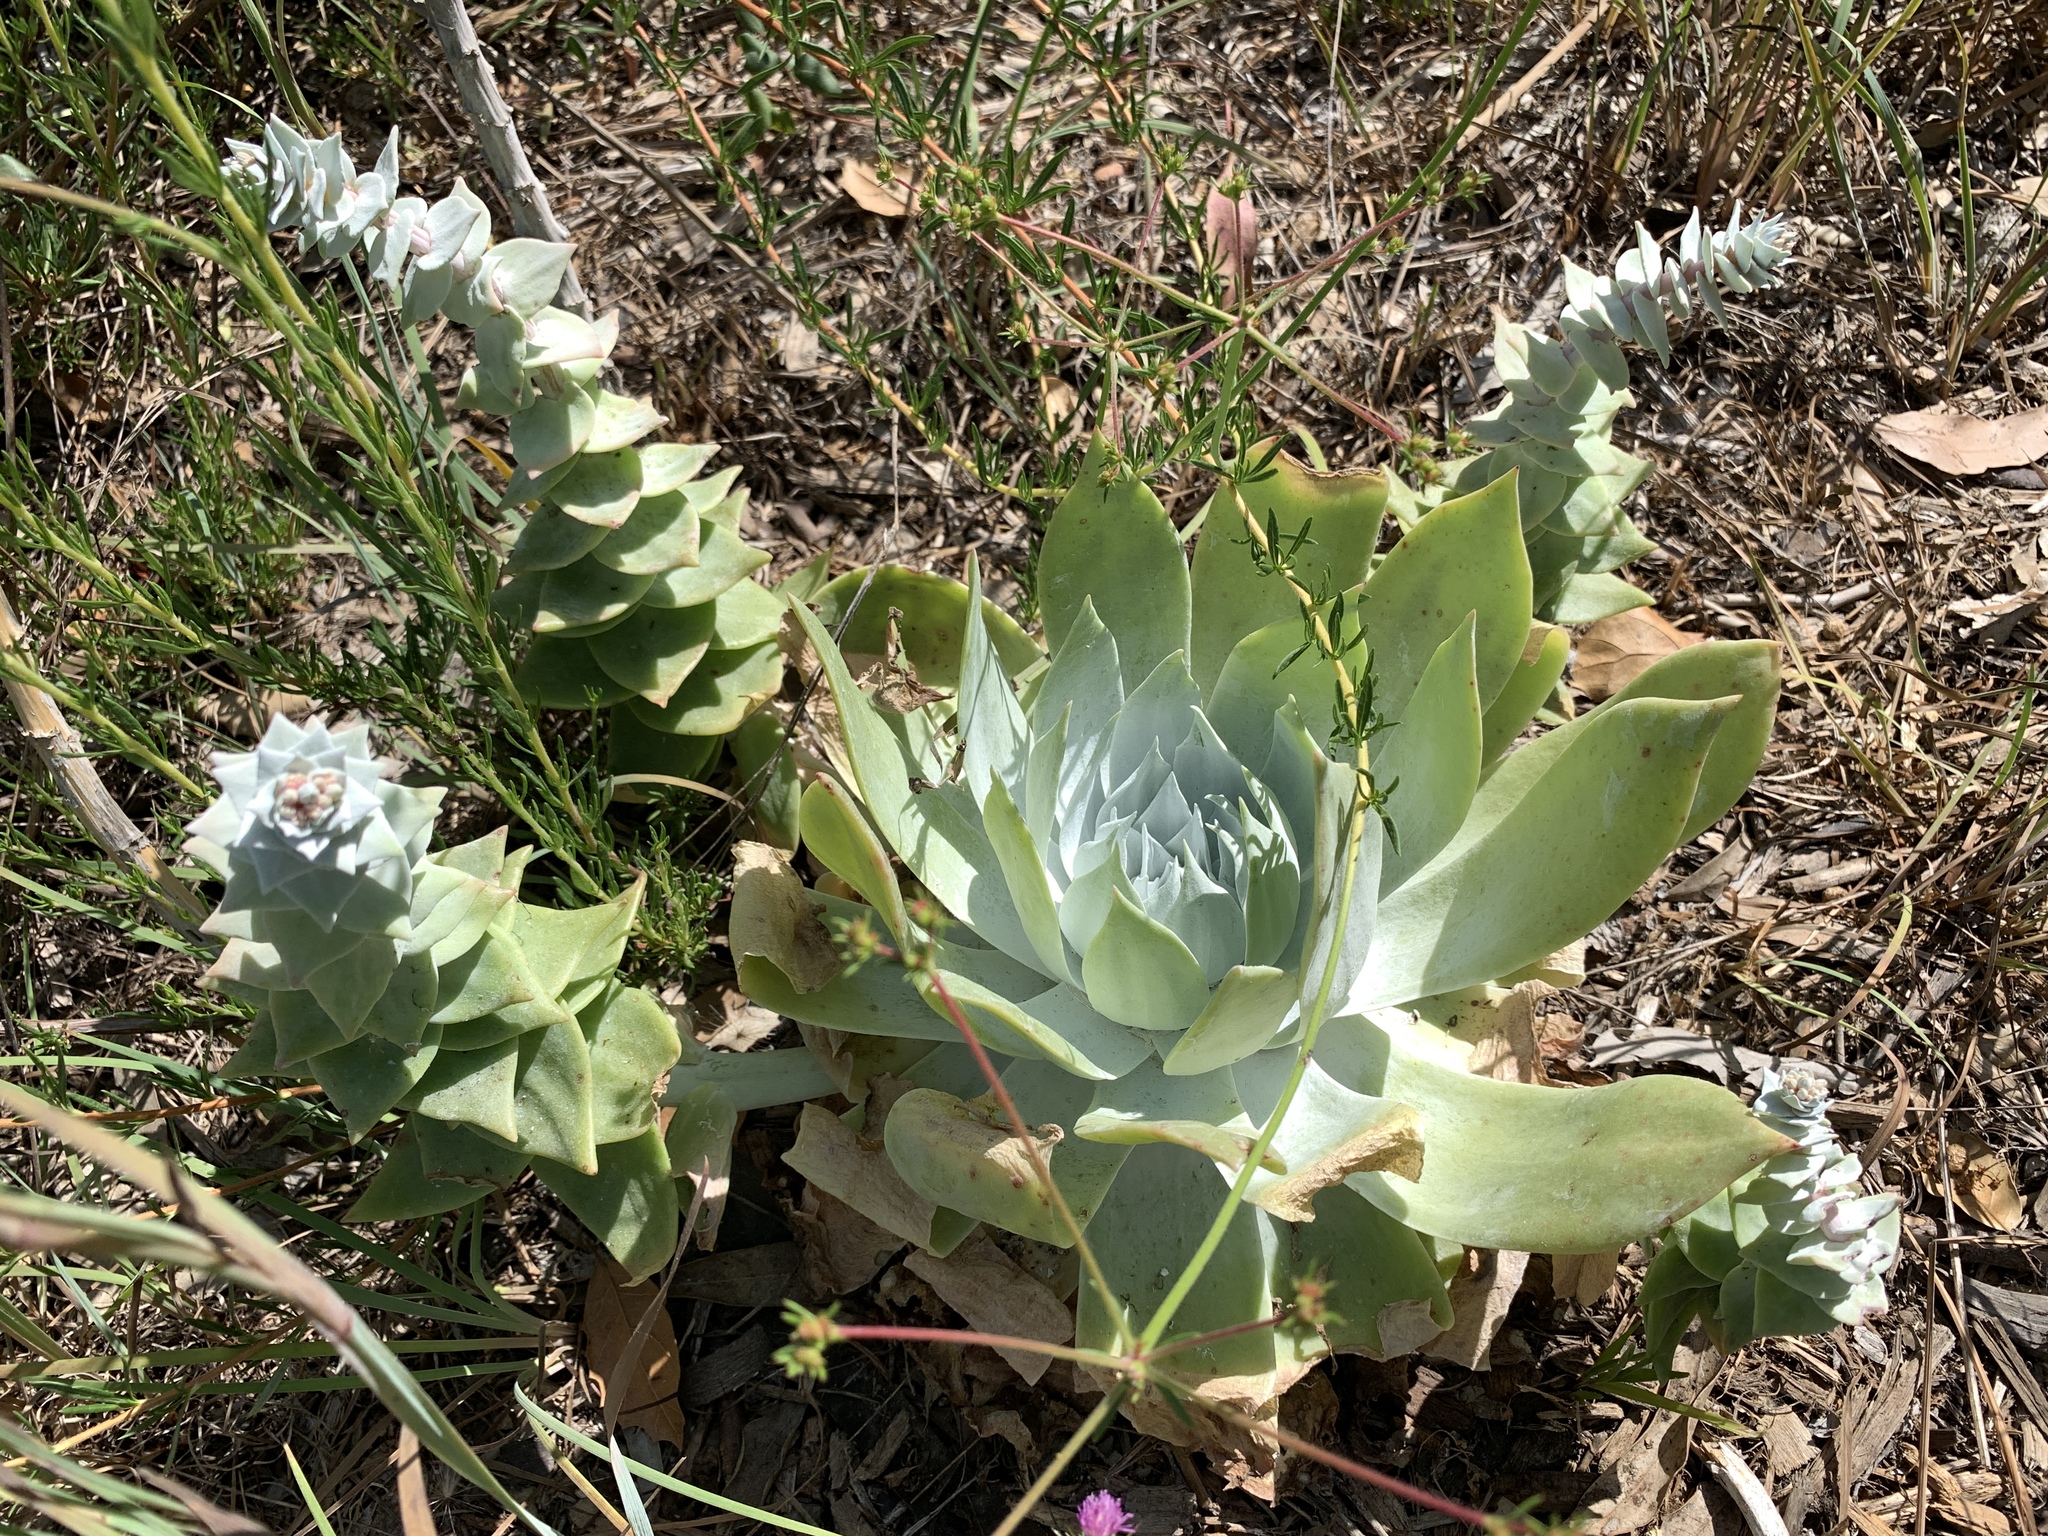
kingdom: Plantae
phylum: Tracheophyta
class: Magnoliopsida
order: Saxifragales
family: Crassulaceae
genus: Dudleya
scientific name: Dudleya pulverulenta
